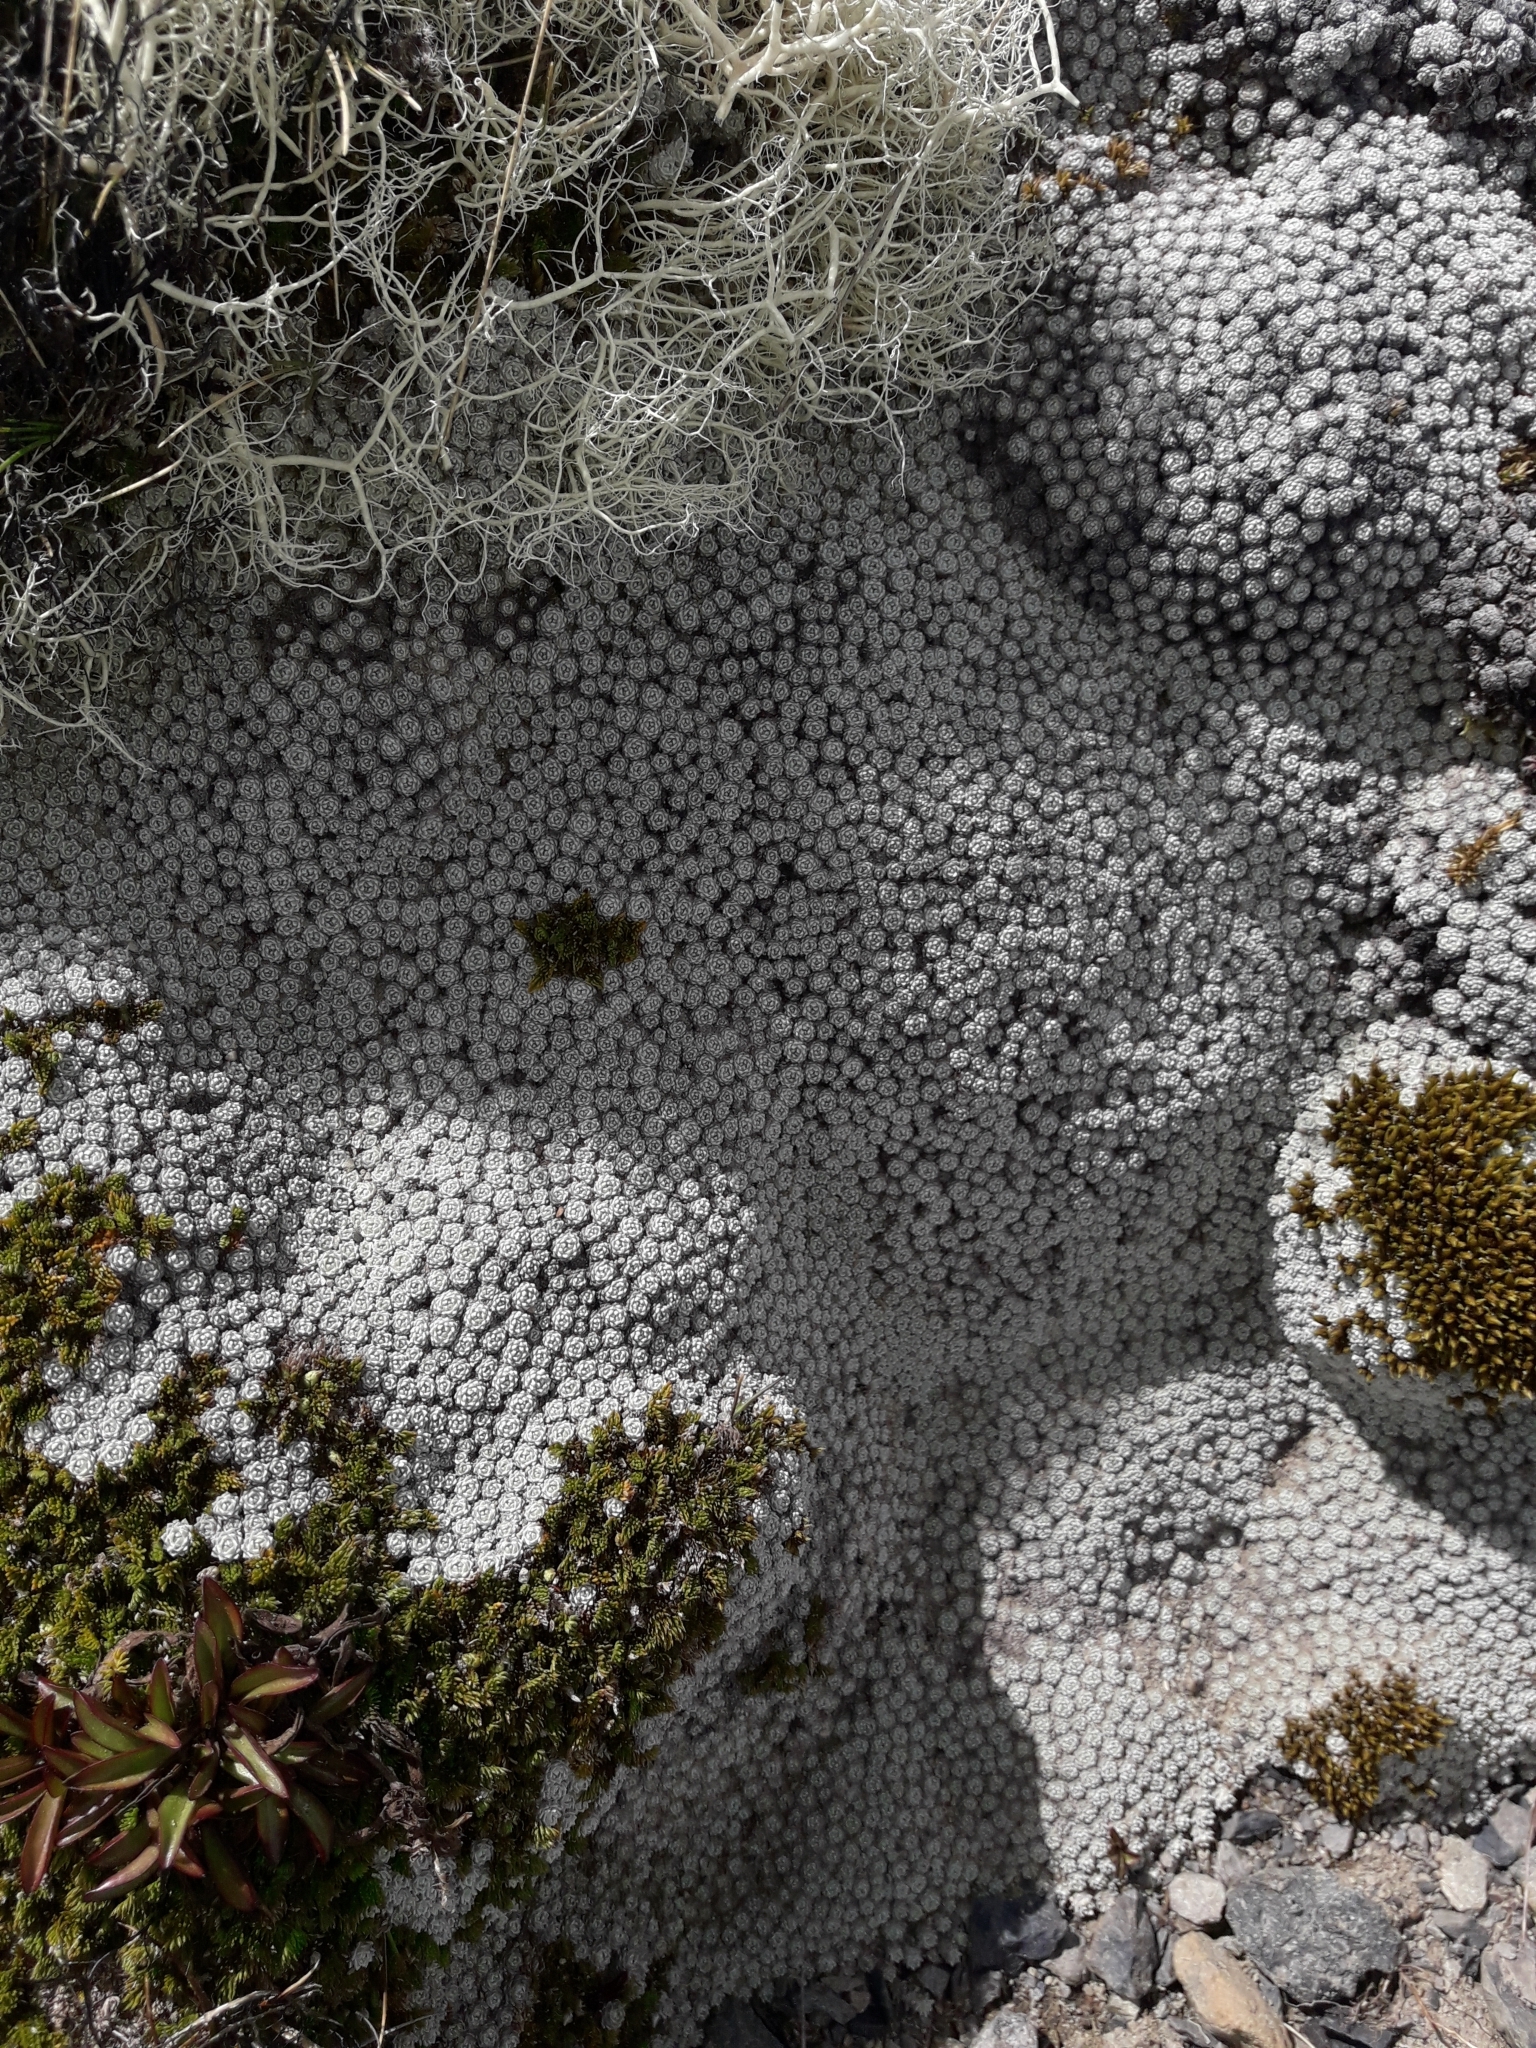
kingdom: Plantae
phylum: Tracheophyta
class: Magnoliopsida
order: Asterales
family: Asteraceae
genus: Raoulia
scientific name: Raoulia bryoides
